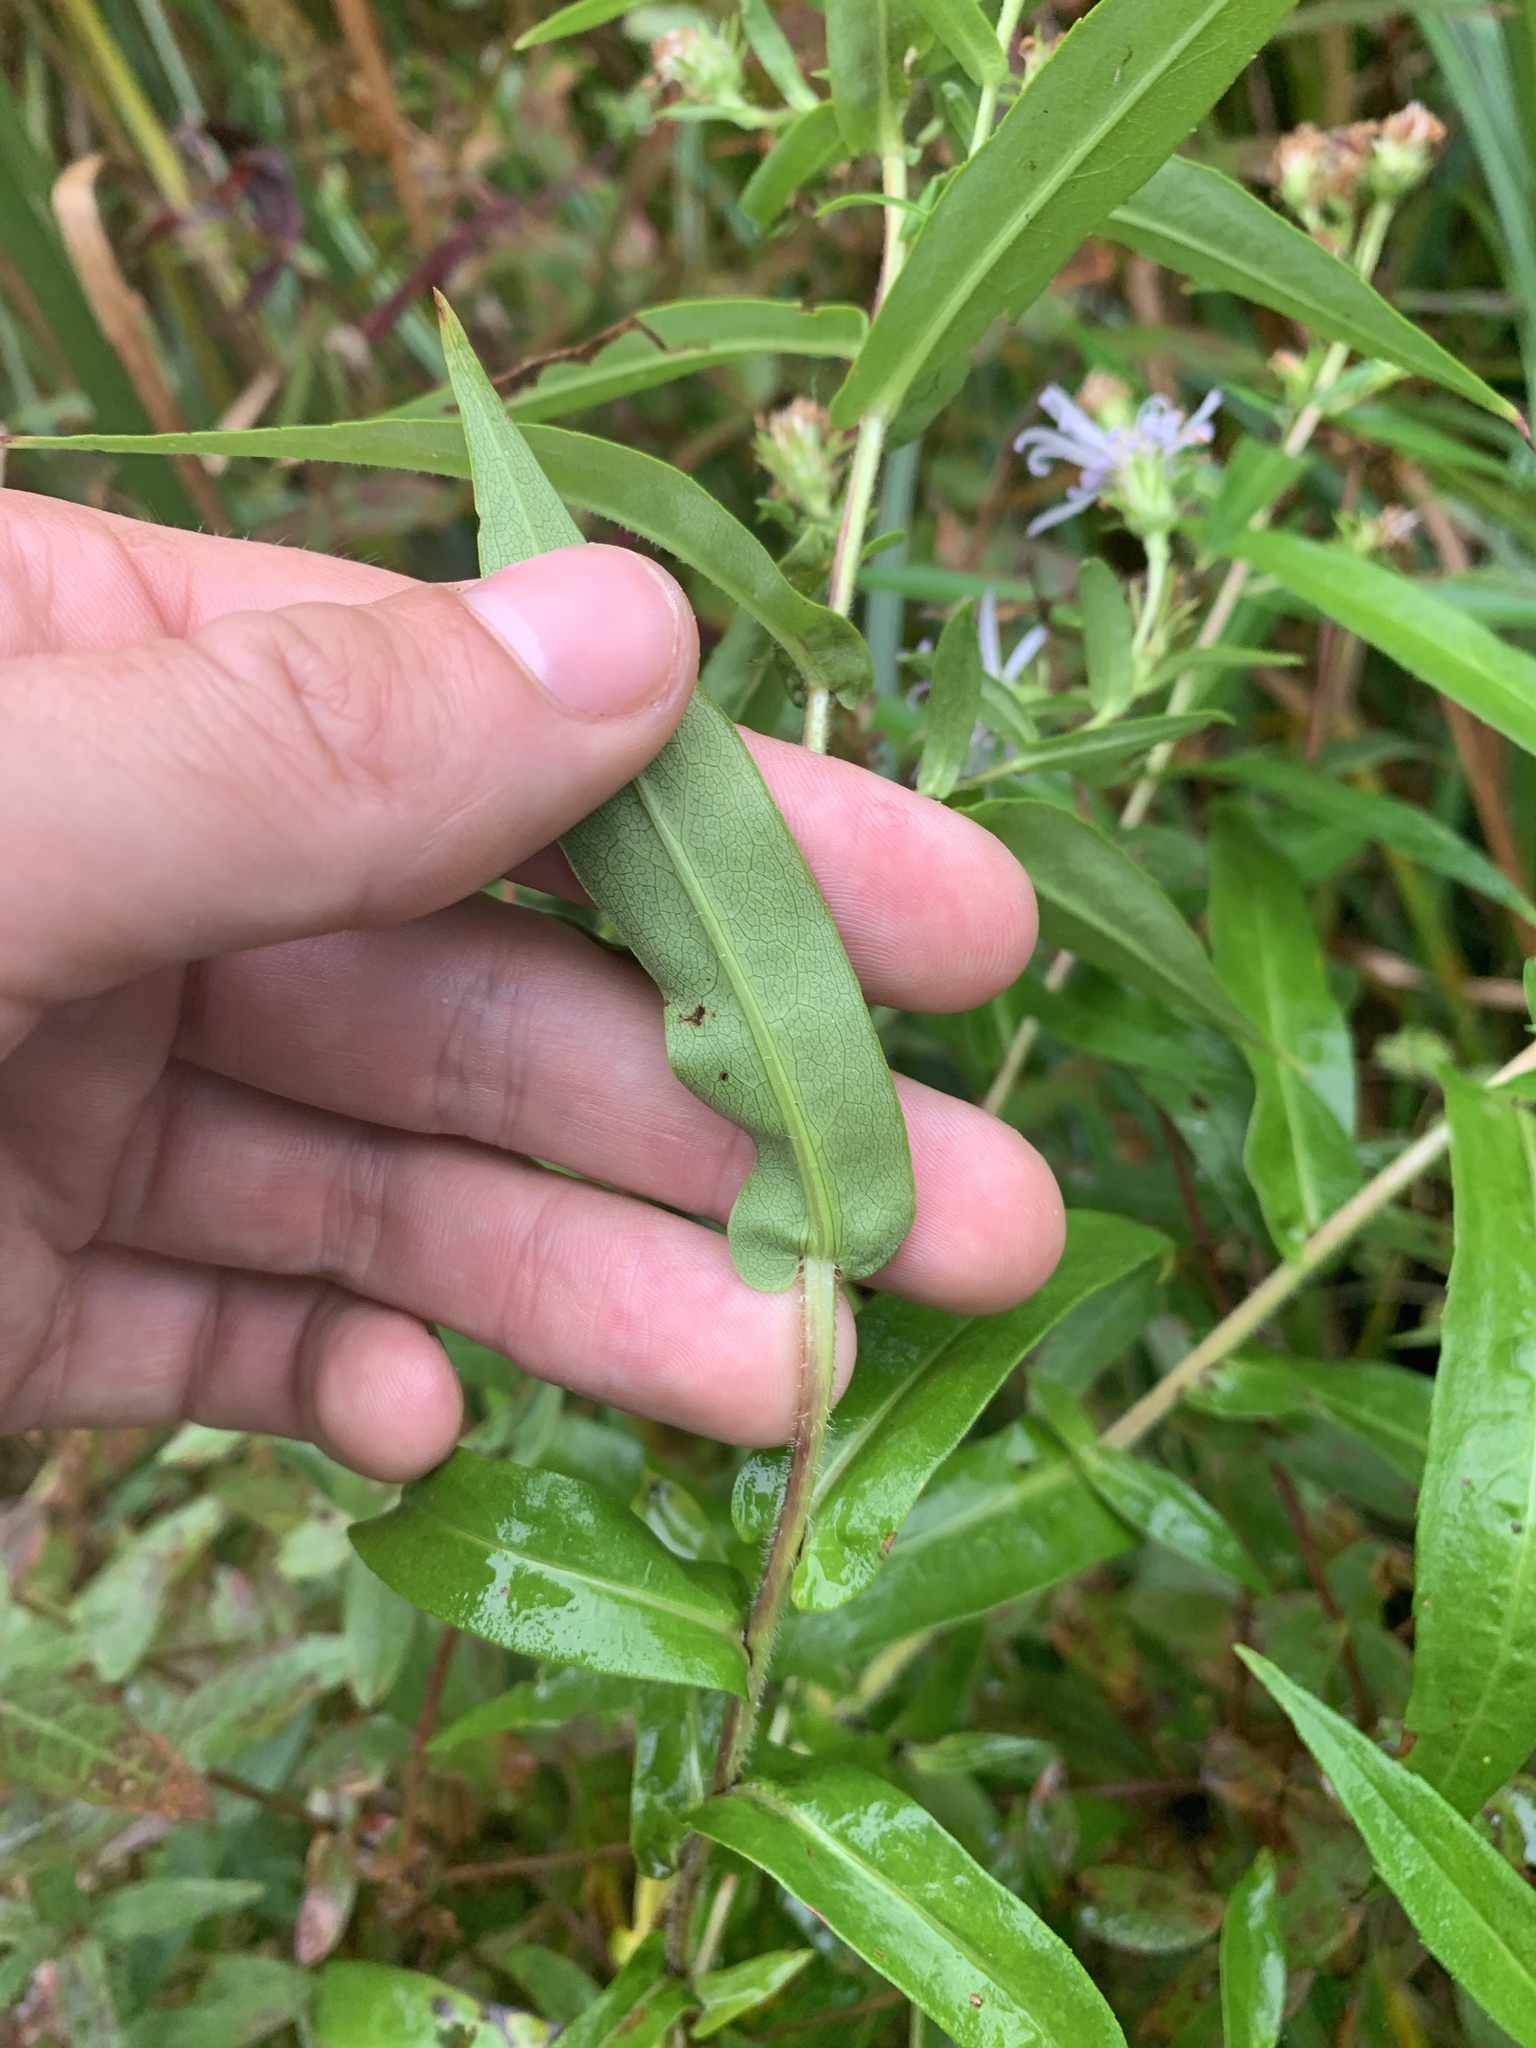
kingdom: Plantae
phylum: Tracheophyta
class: Magnoliopsida
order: Asterales
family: Asteraceae
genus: Symphyotrichum
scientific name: Symphyotrichum firmum
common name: Shining aster
